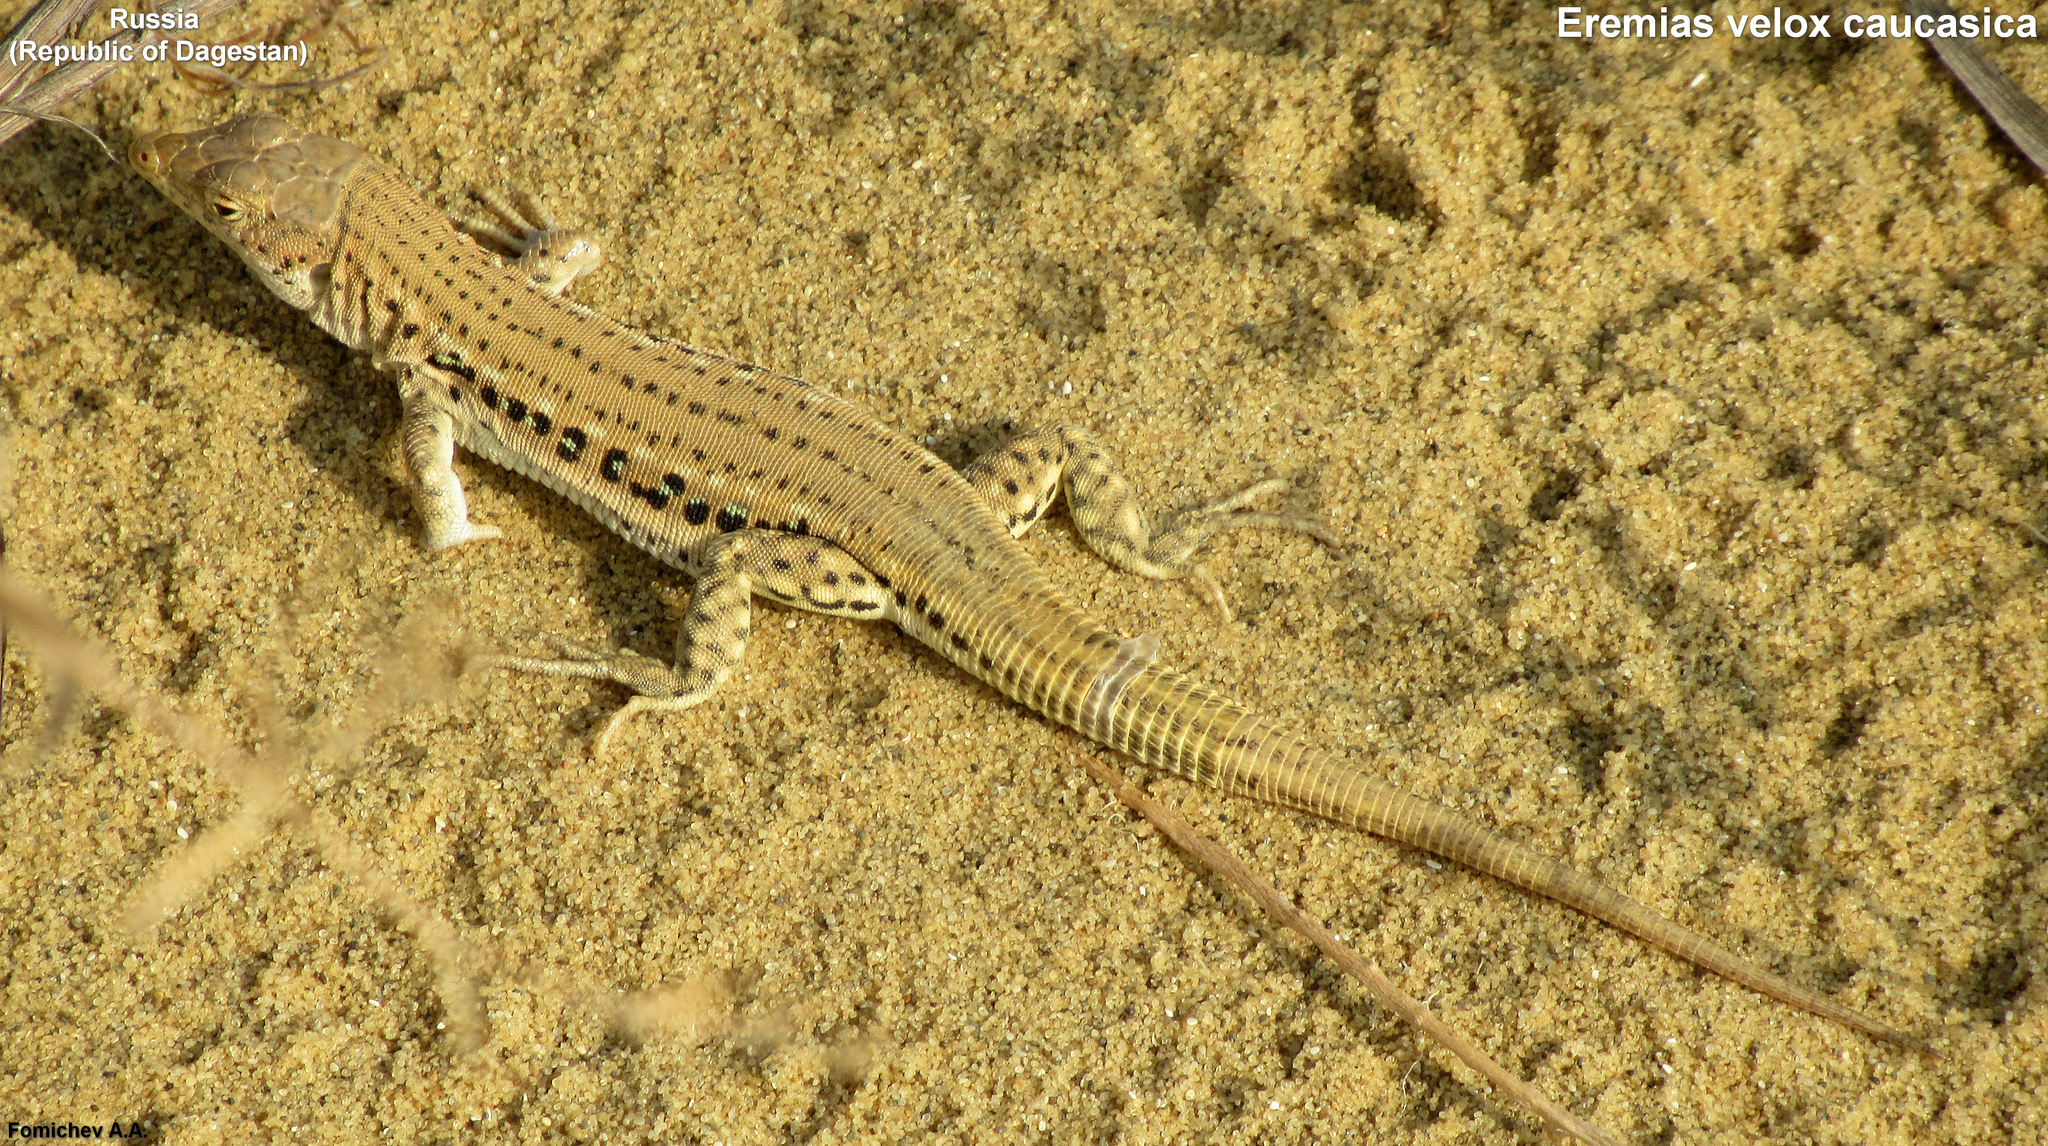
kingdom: Animalia
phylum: Chordata
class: Squamata
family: Lacertidae
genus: Eremias
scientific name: Eremias velox
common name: Central asian racerunner
